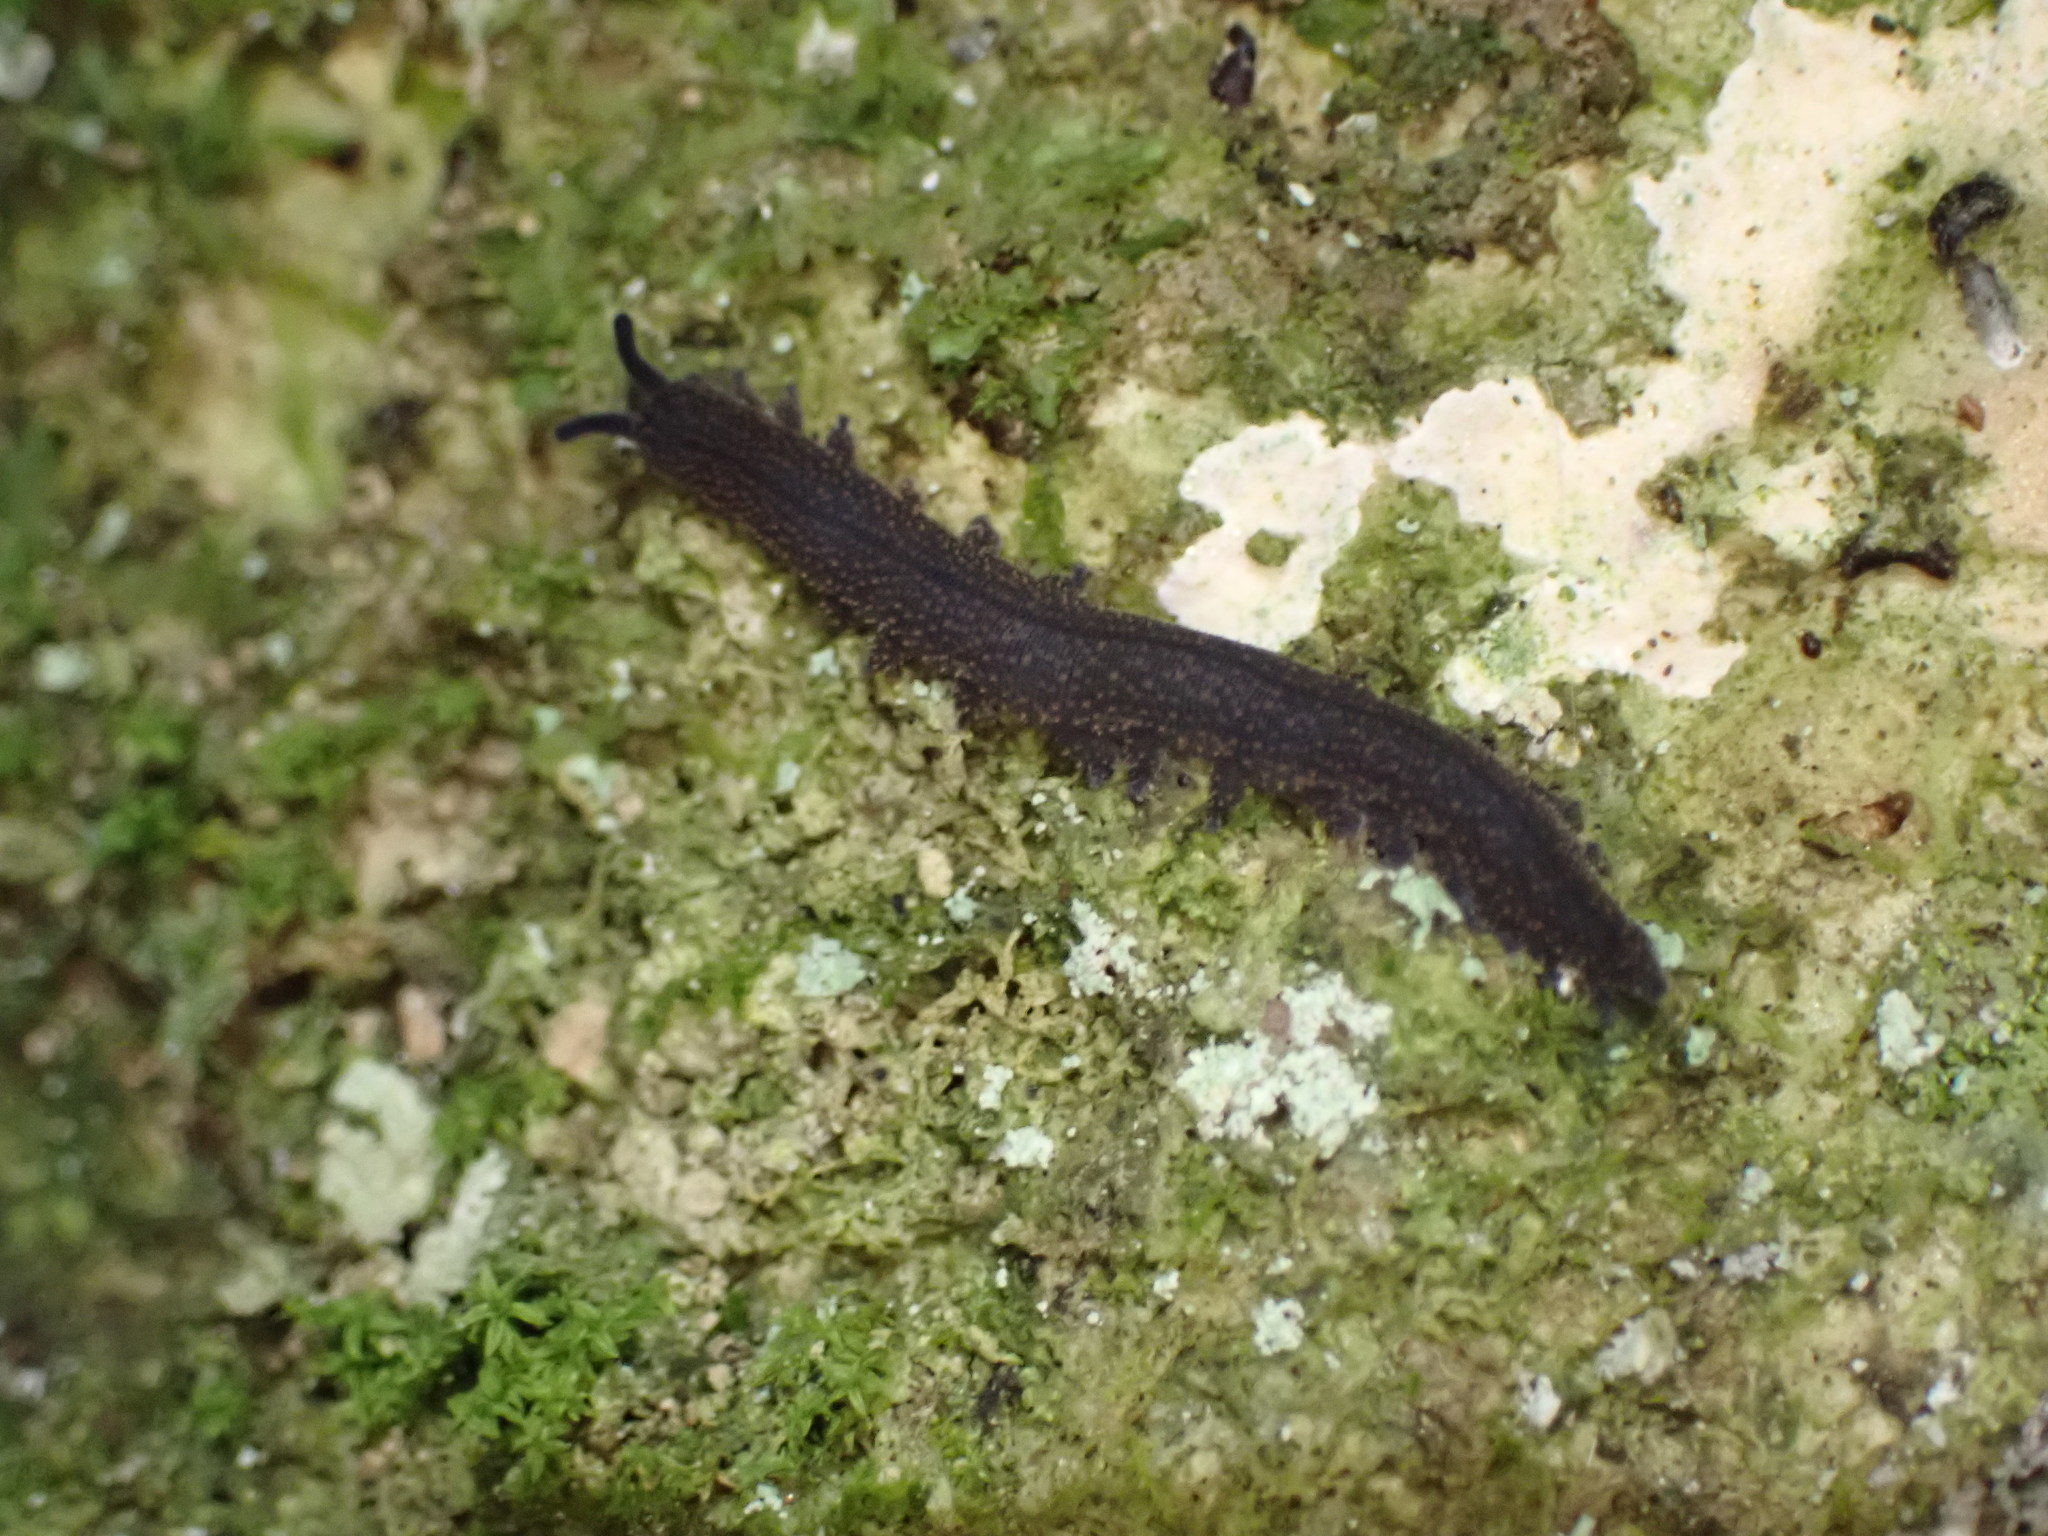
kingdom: Animalia
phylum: Onychophora
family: Peripatopsidae
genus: Peripatoides
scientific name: Peripatoides novaezealandiae
